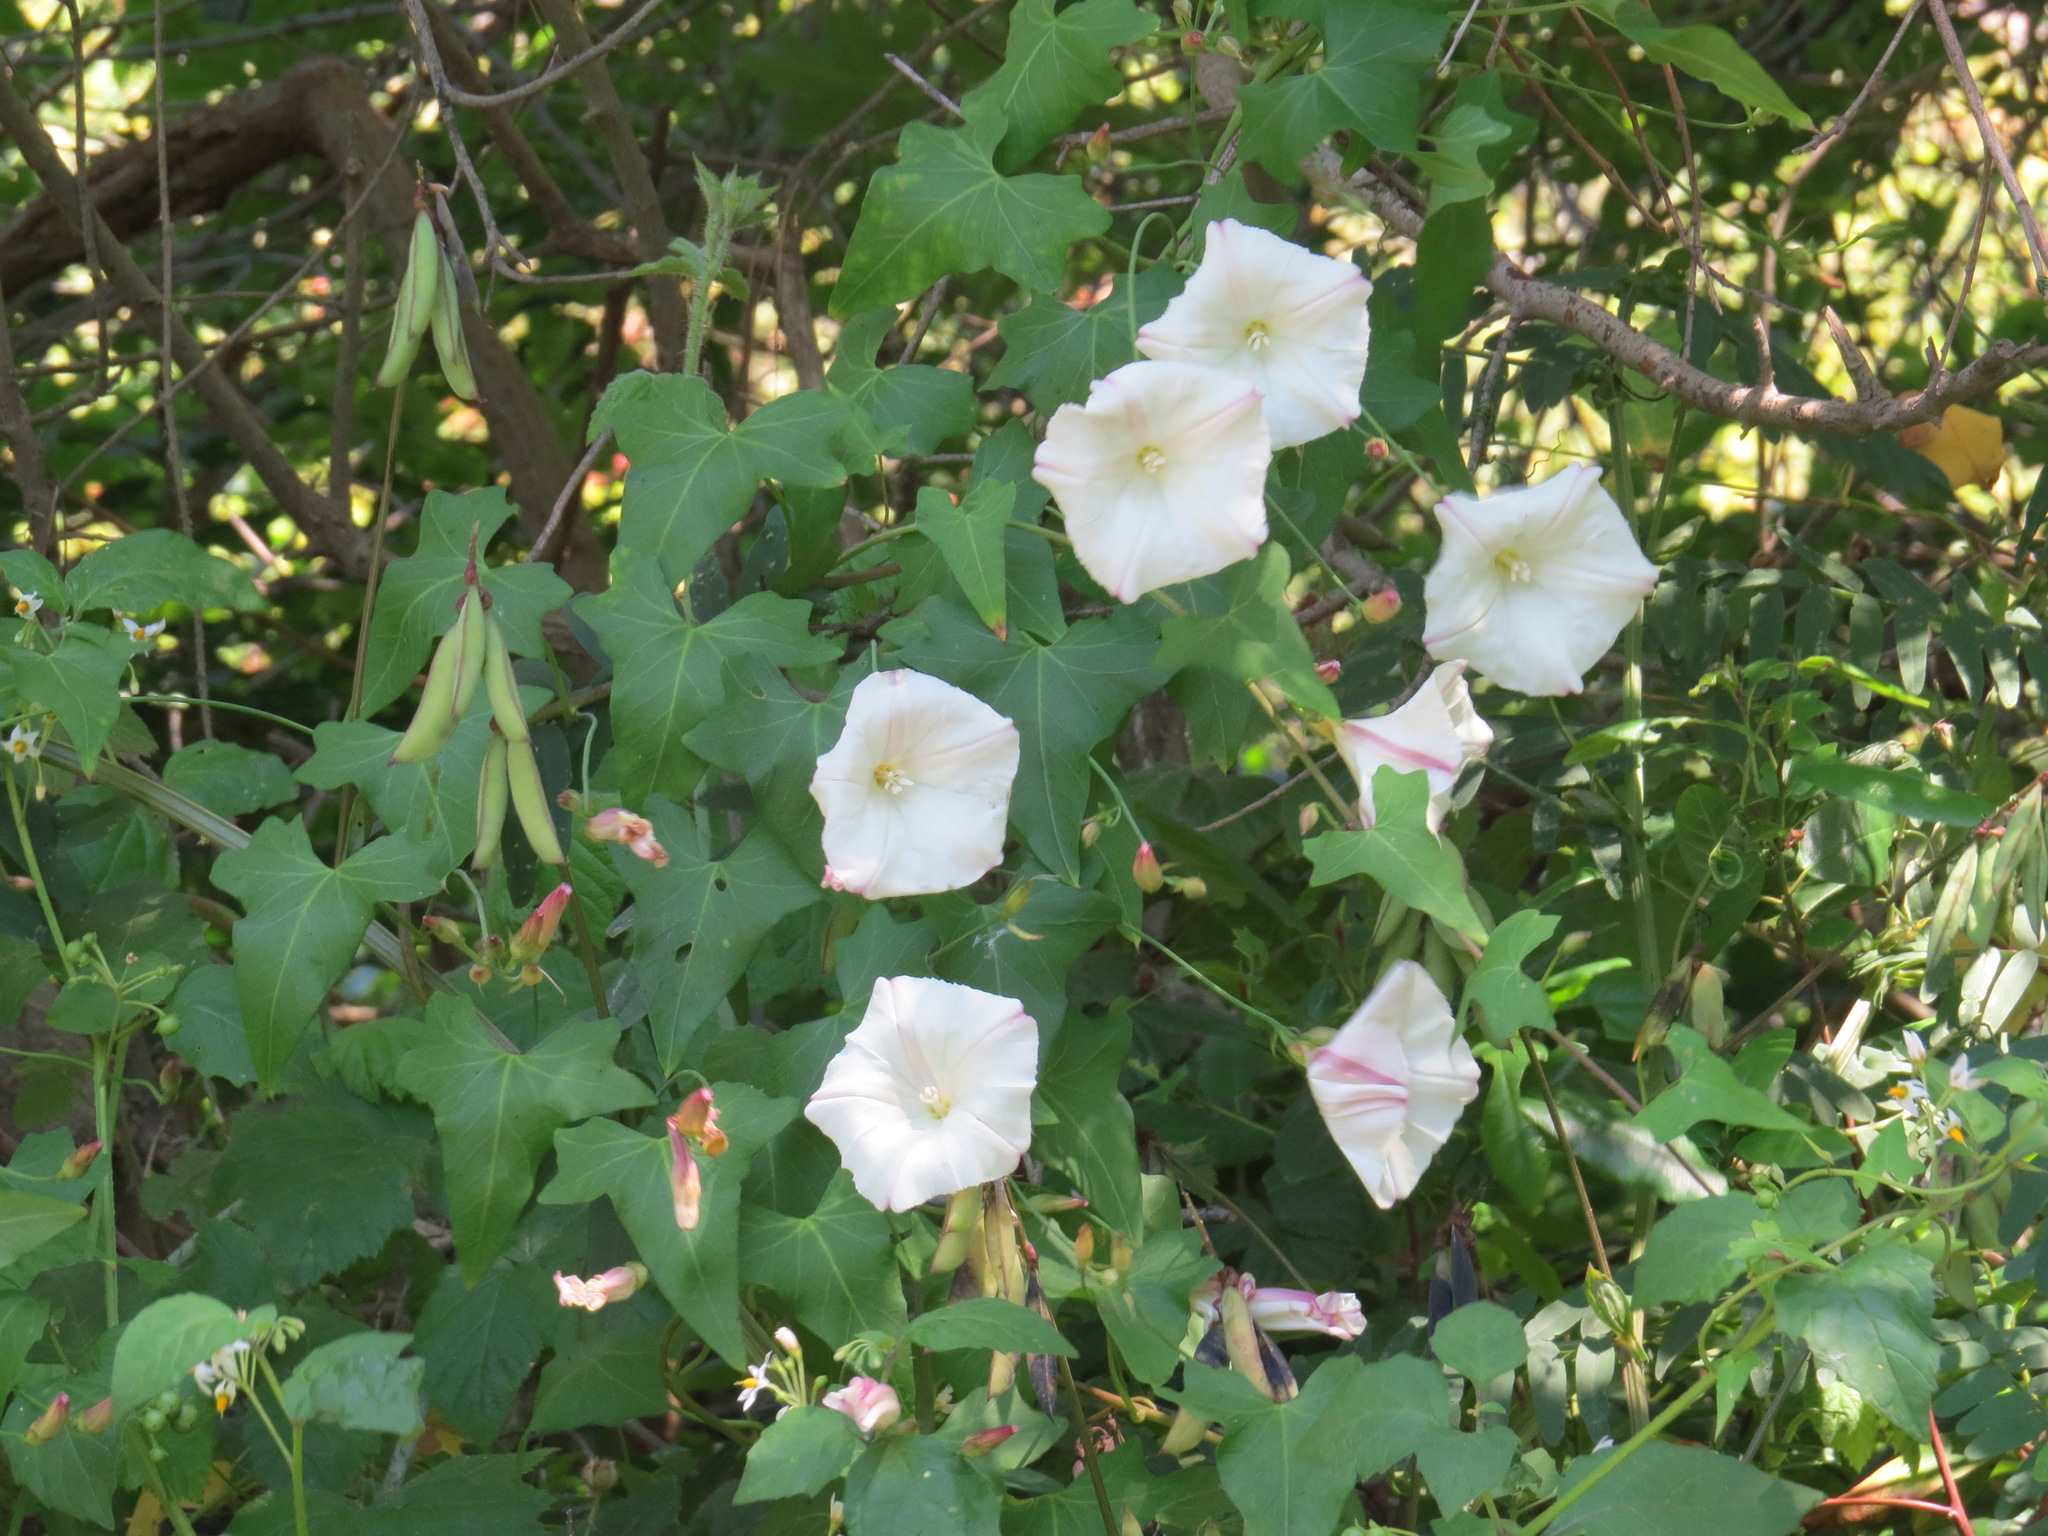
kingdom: Plantae
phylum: Tracheophyta
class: Magnoliopsida
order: Solanales
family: Convolvulaceae
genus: Calystegia
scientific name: Calystegia purpurata
